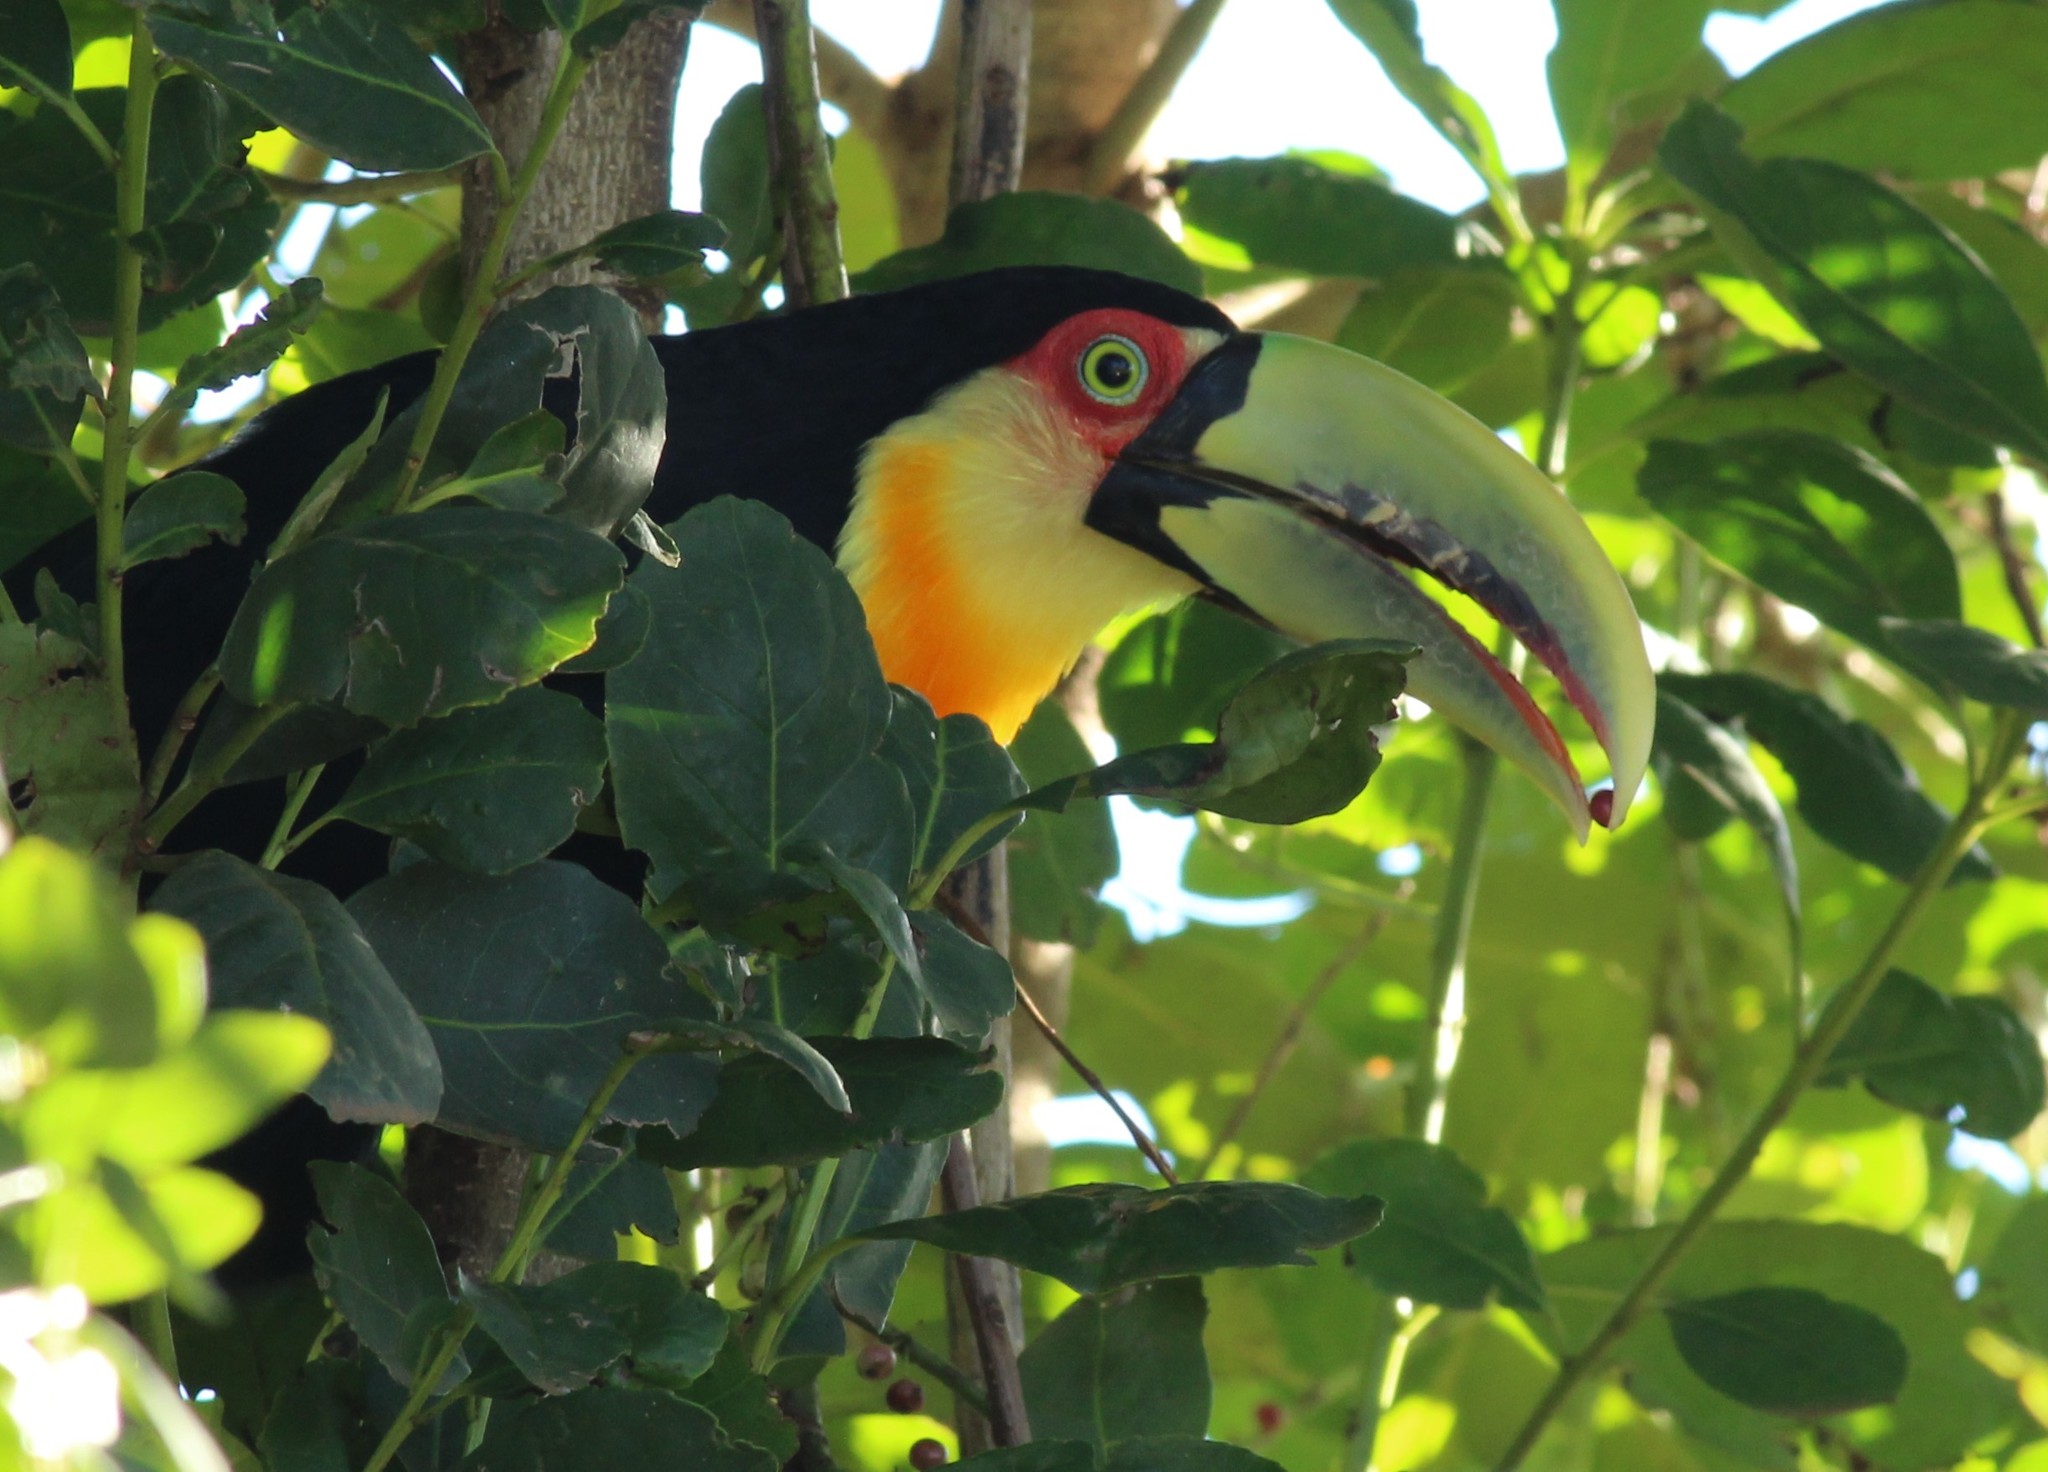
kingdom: Animalia
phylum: Chordata
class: Aves
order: Piciformes
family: Ramphastidae
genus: Ramphastos
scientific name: Ramphastos dicolorus
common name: Green-billed toucan
